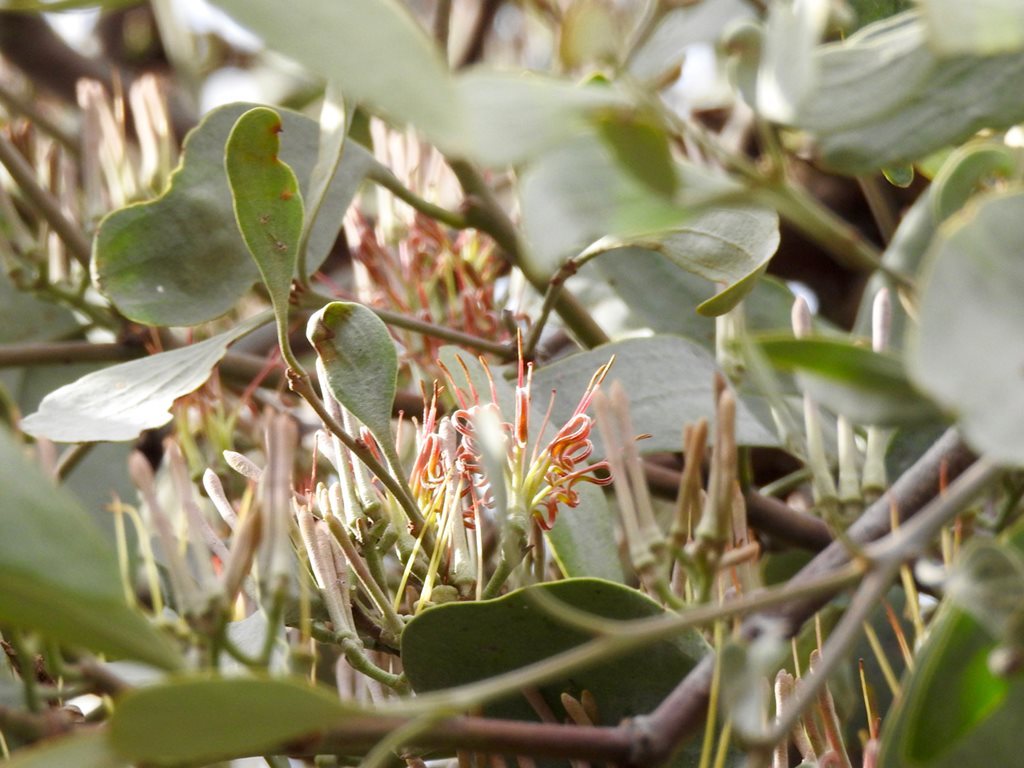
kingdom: Plantae
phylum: Tracheophyta
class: Magnoliopsida
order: Santalales
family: Loranthaceae
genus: Amyema
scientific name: Amyema quandang
